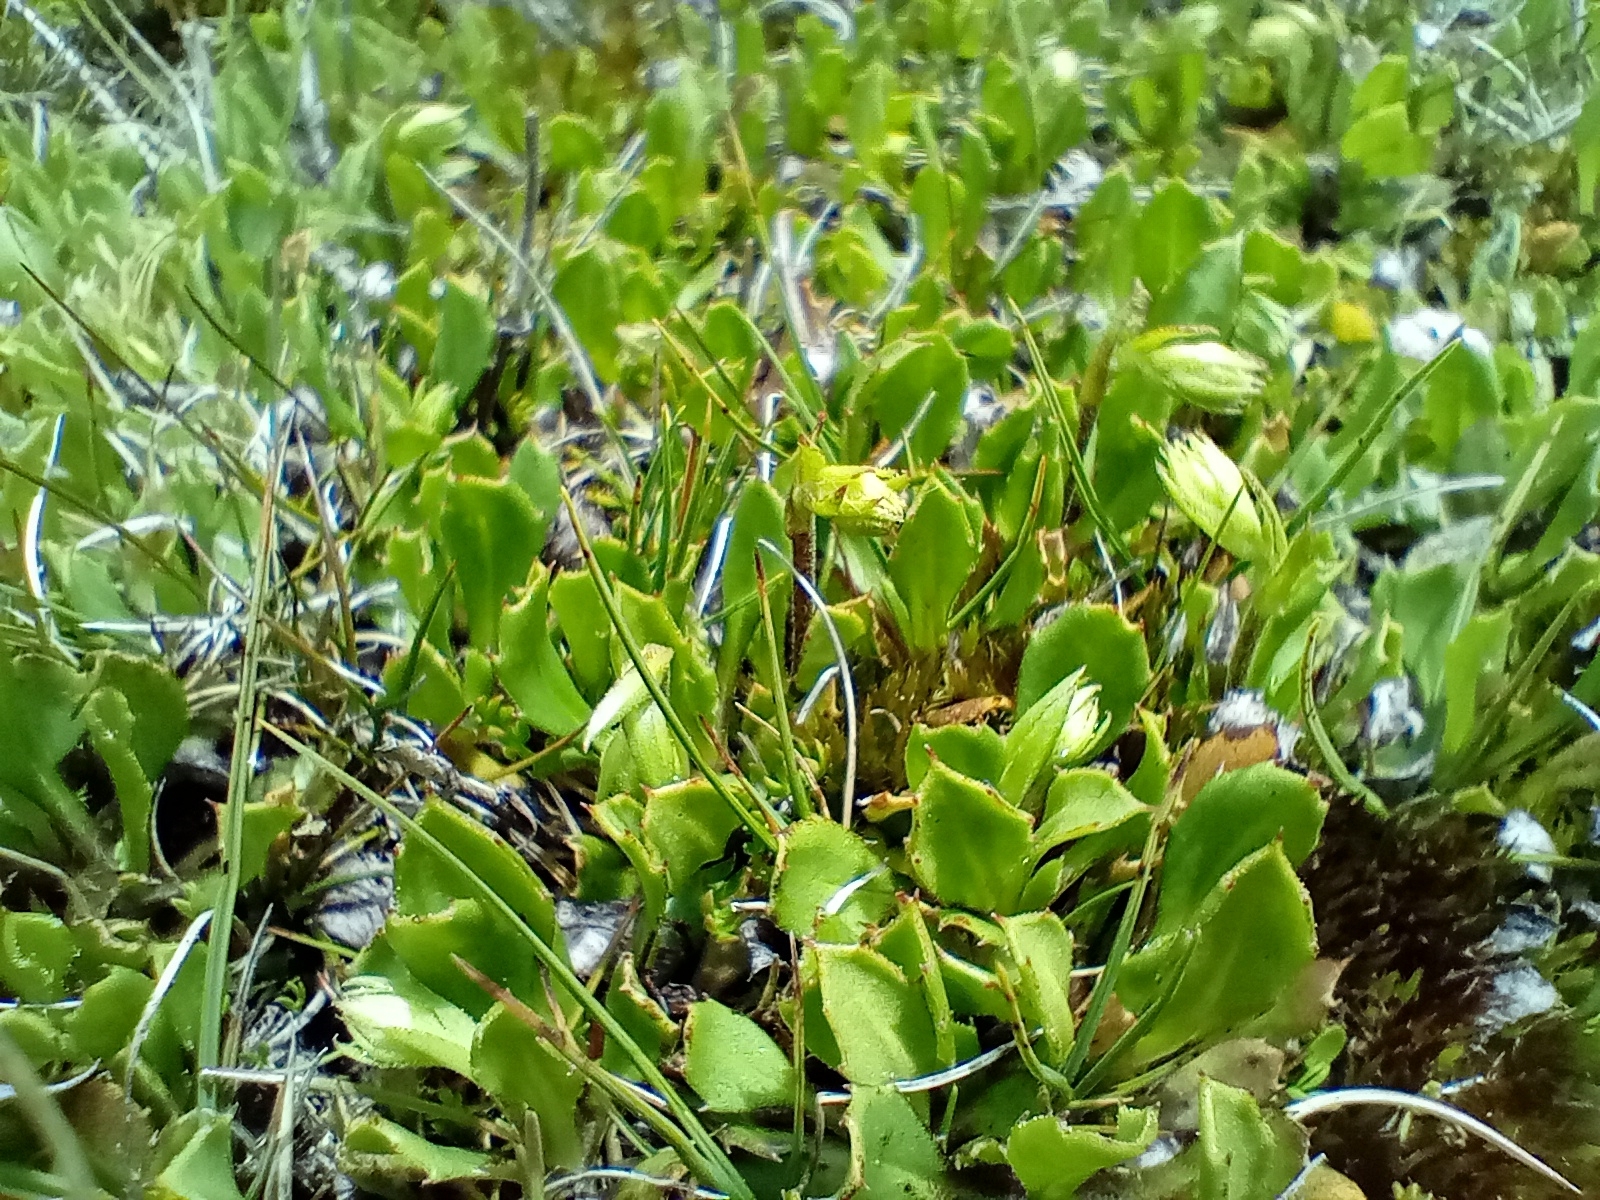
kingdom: Plantae
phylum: Tracheophyta
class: Magnoliopsida
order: Asterales
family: Asteraceae
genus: Celmisia
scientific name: Celmisia glandulosa
